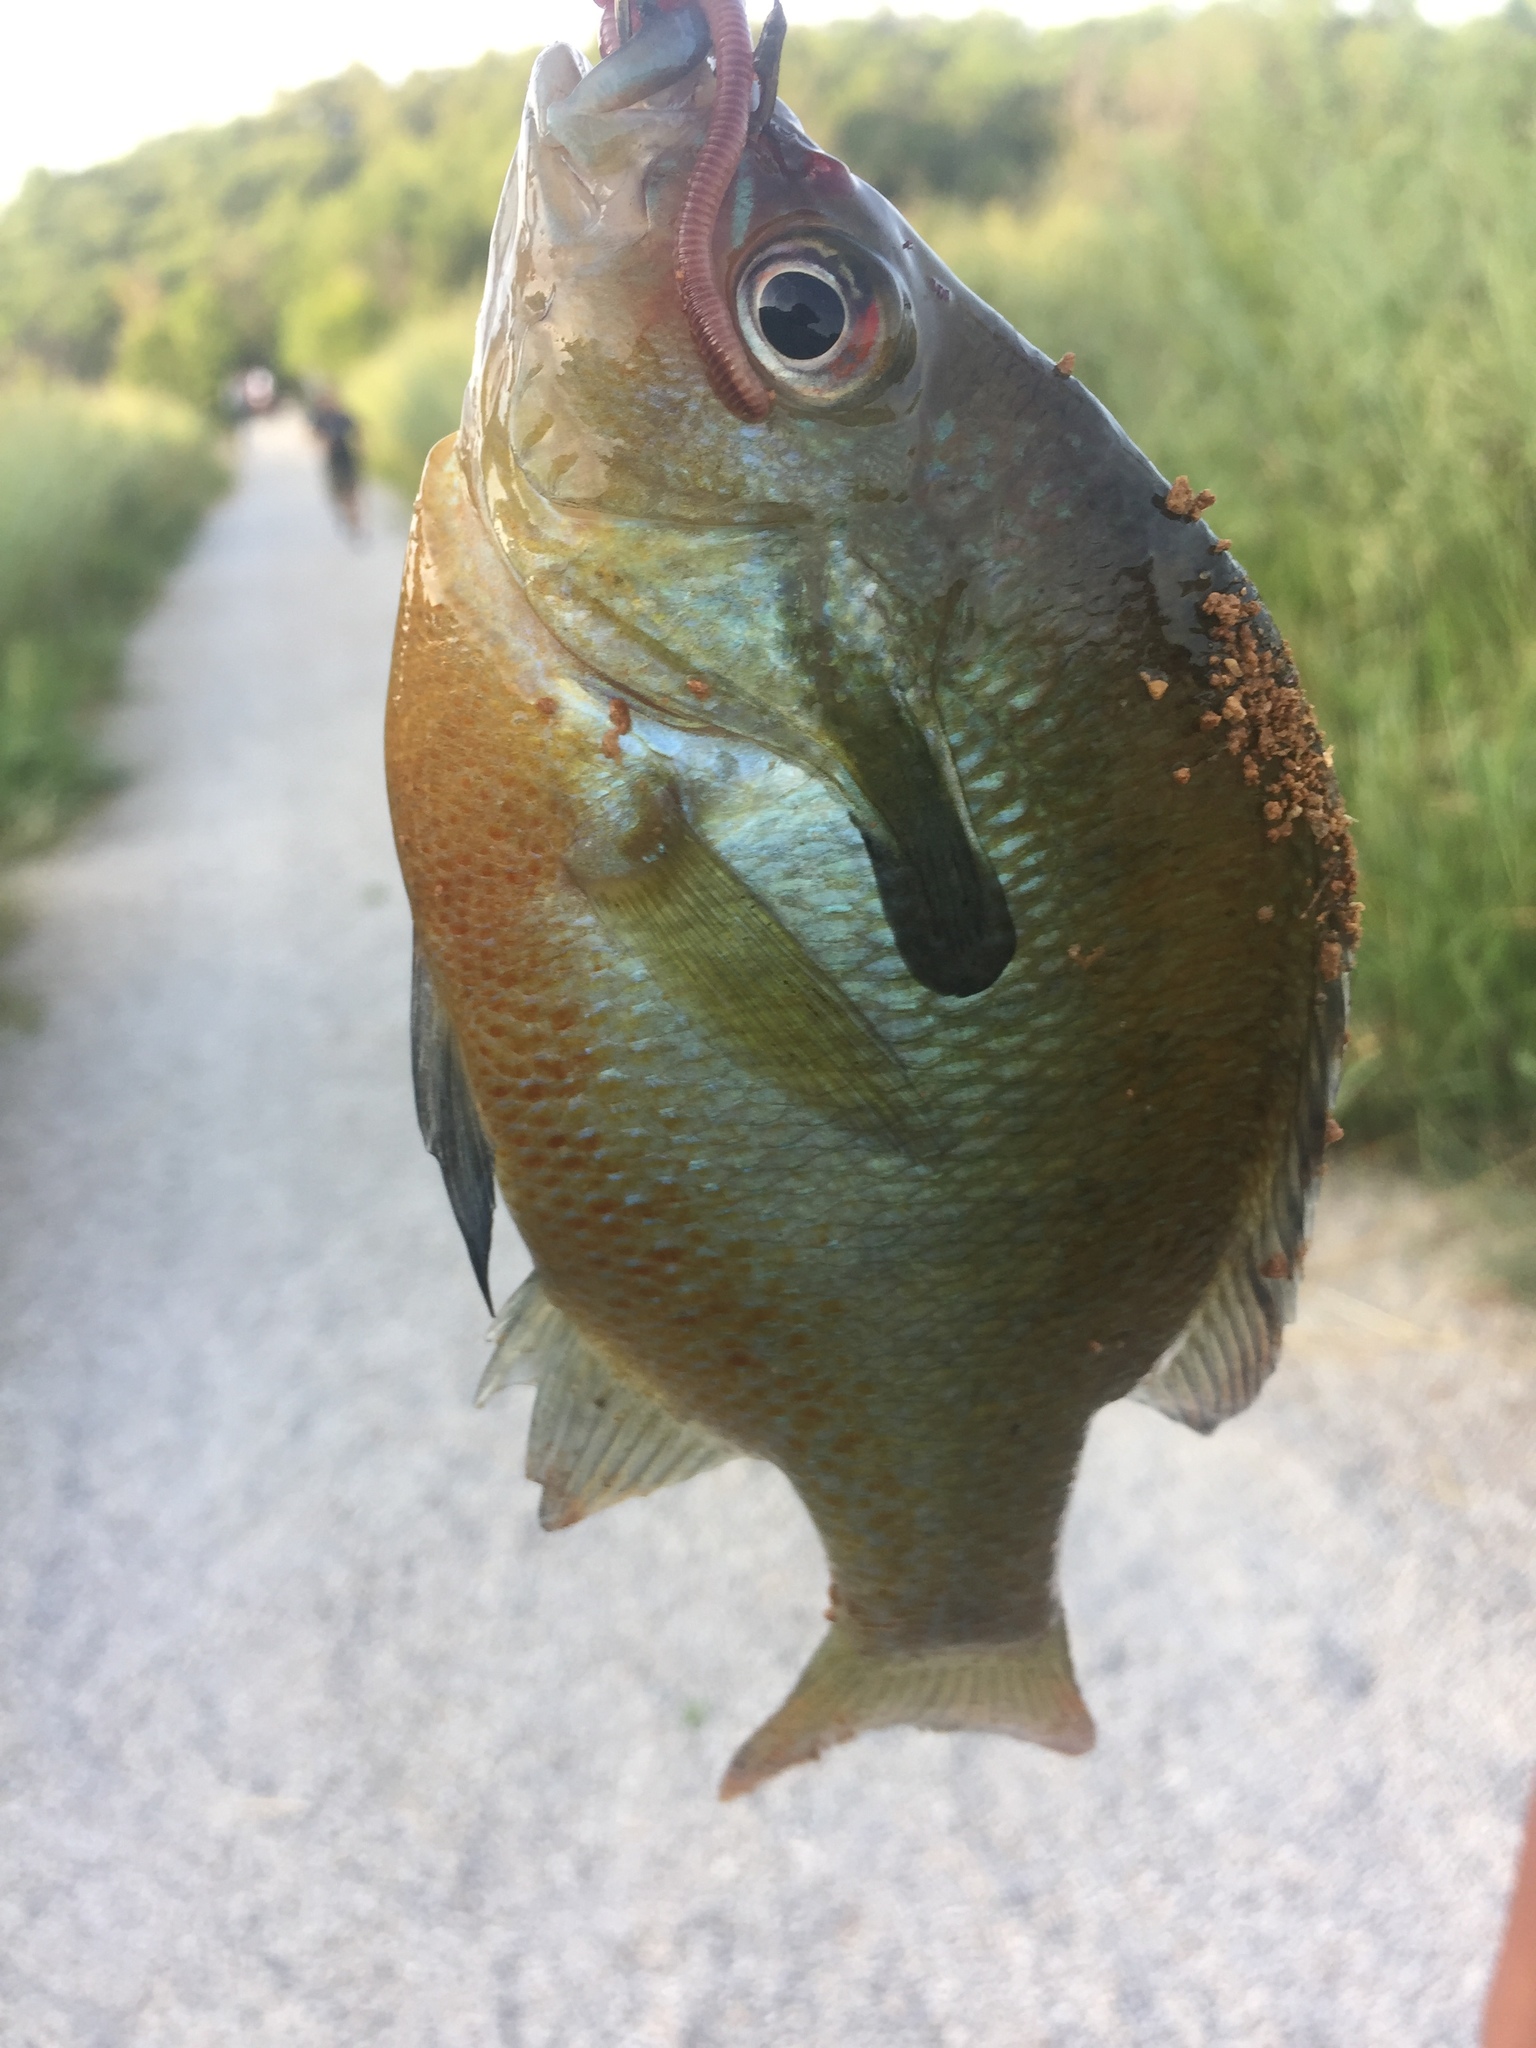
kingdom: Animalia
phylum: Chordata
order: Perciformes
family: Centrarchidae
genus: Lepomis
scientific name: Lepomis auritus
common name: Redbreast sunfish
